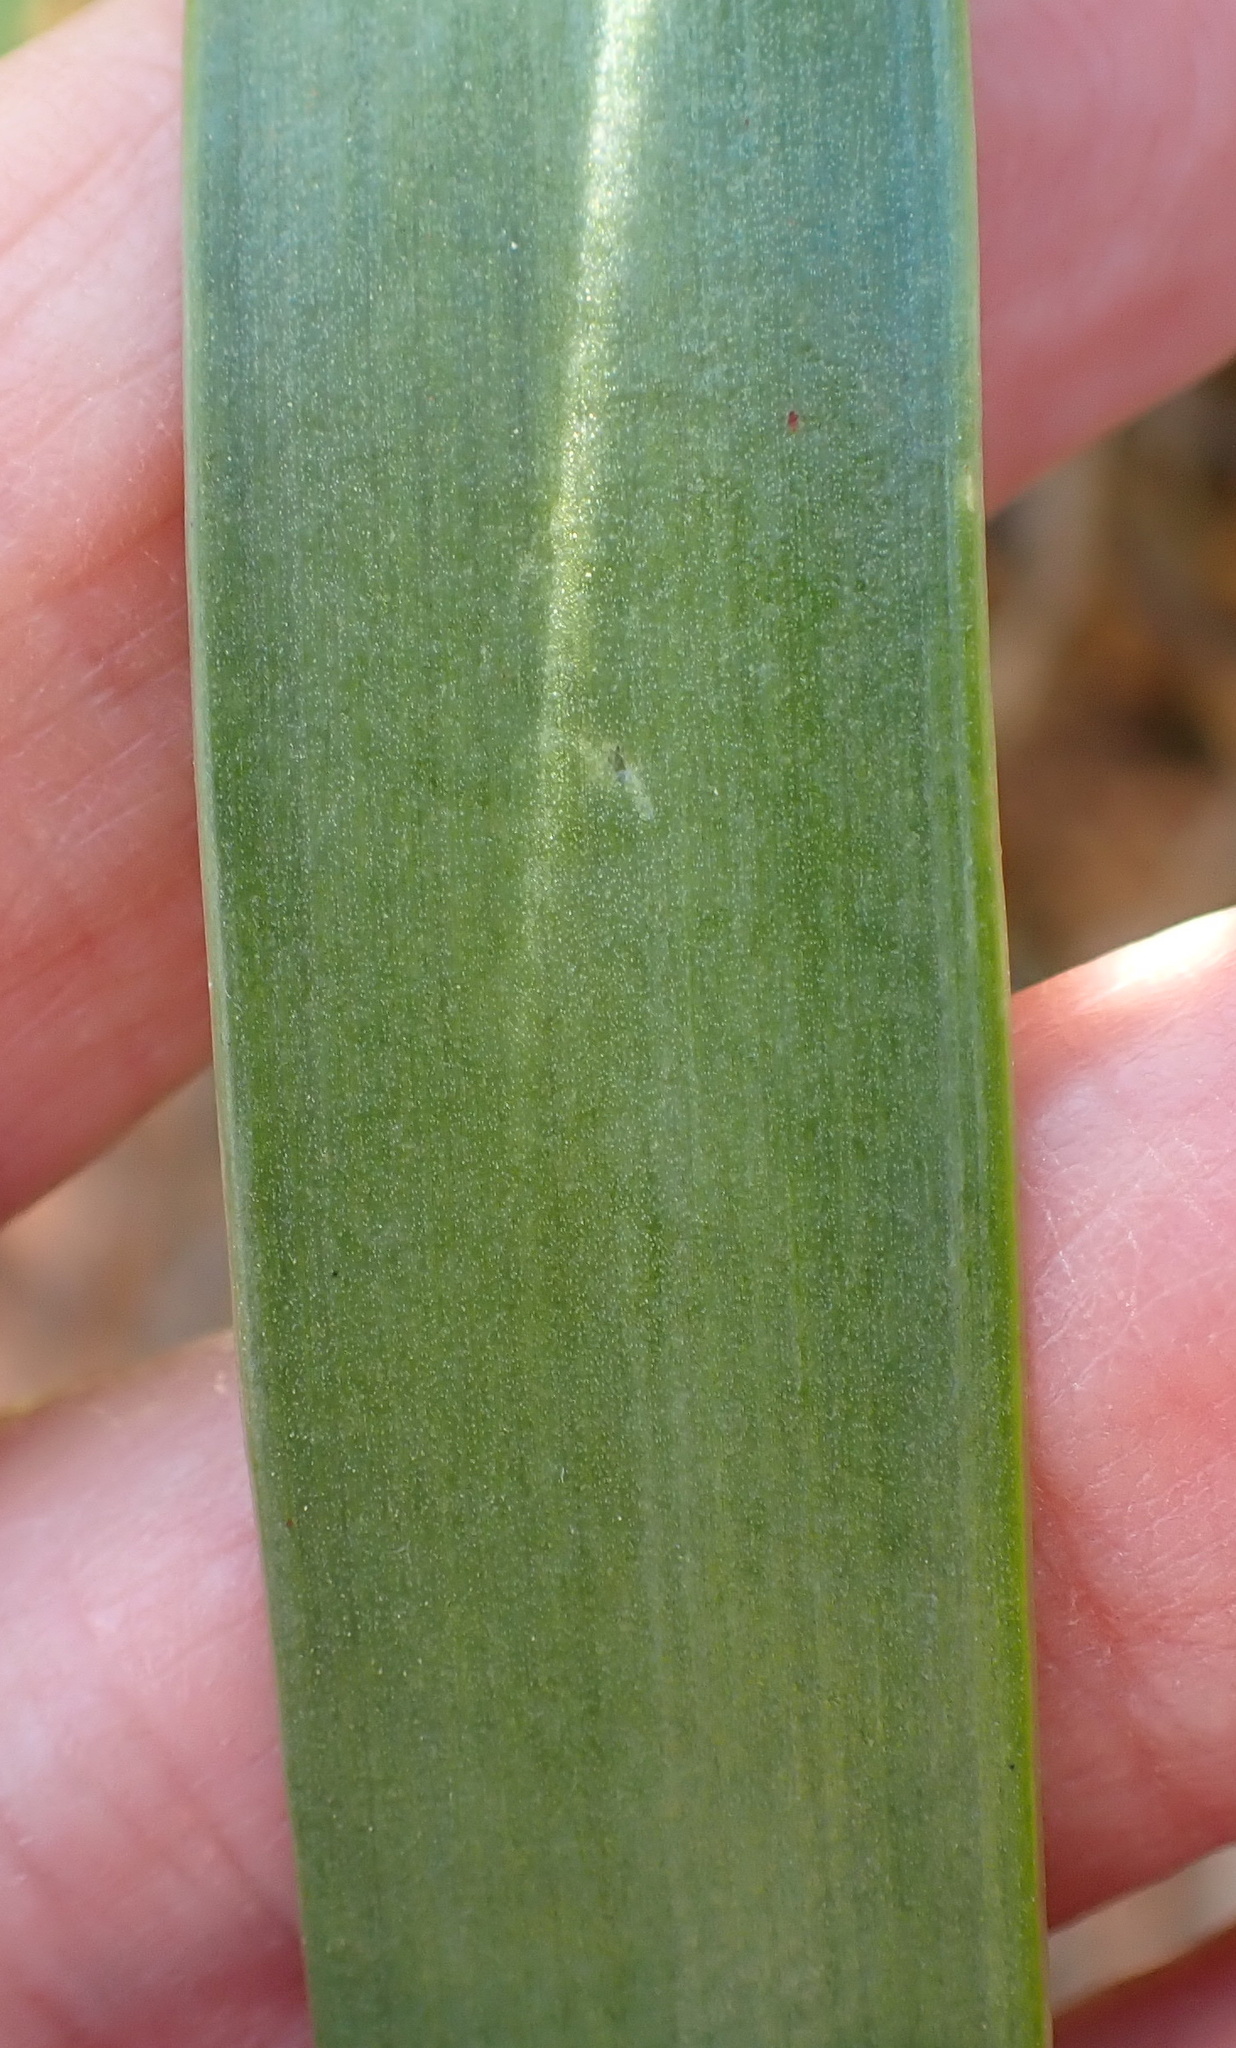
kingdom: Plantae
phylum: Tracheophyta
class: Liliopsida
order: Asparagales
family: Amaryllidaceae
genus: Agapanthus
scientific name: Agapanthus caulescens
